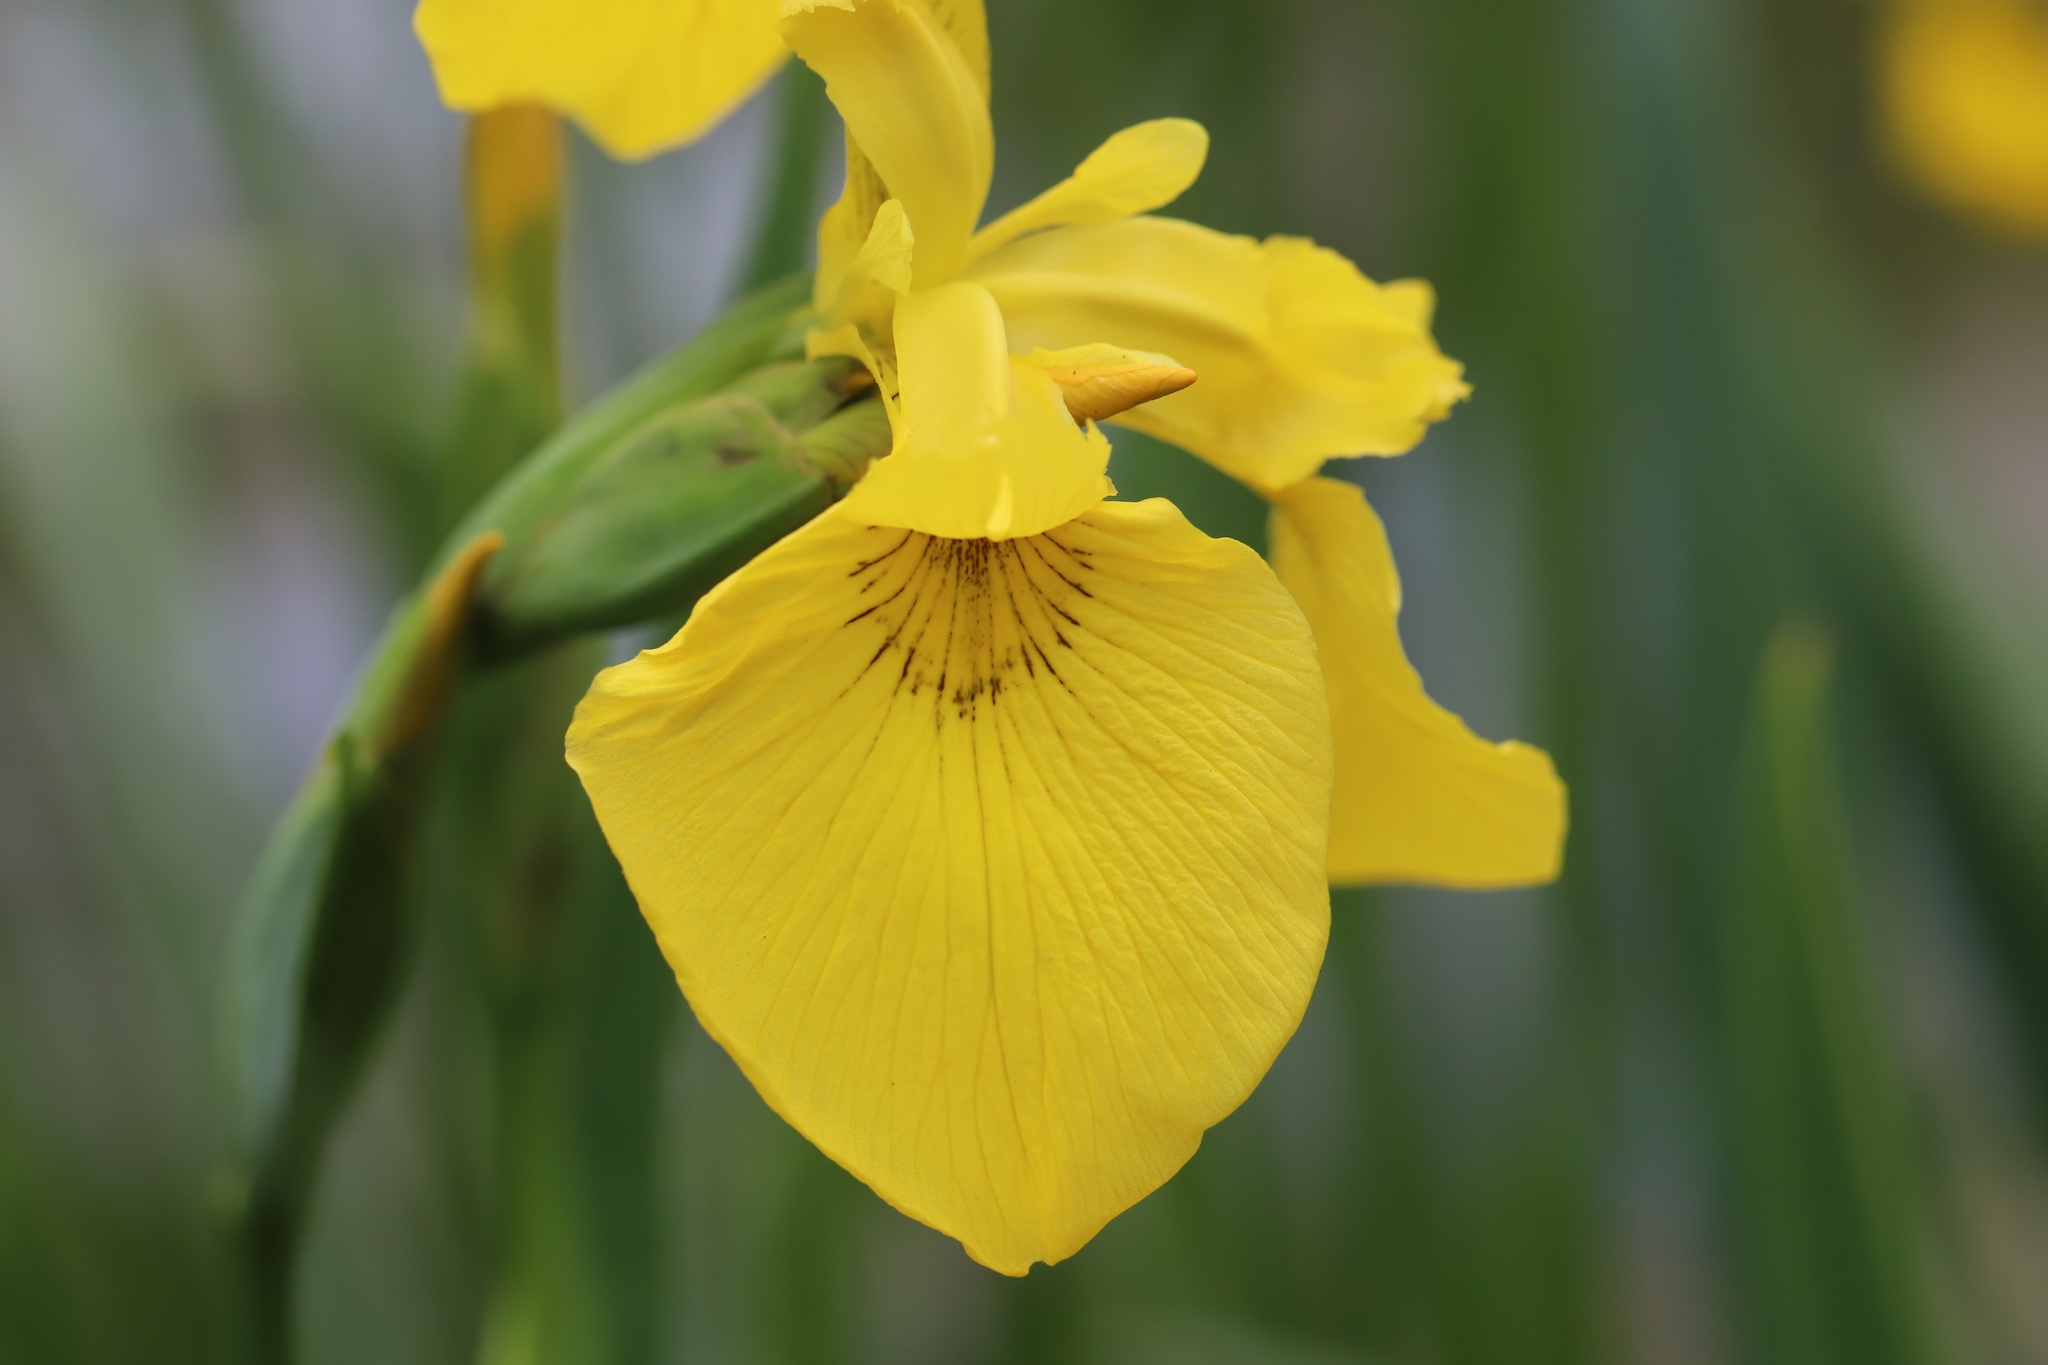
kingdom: Plantae
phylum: Tracheophyta
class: Liliopsida
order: Asparagales
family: Iridaceae
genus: Iris
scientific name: Iris pseudacorus
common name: Yellow flag
